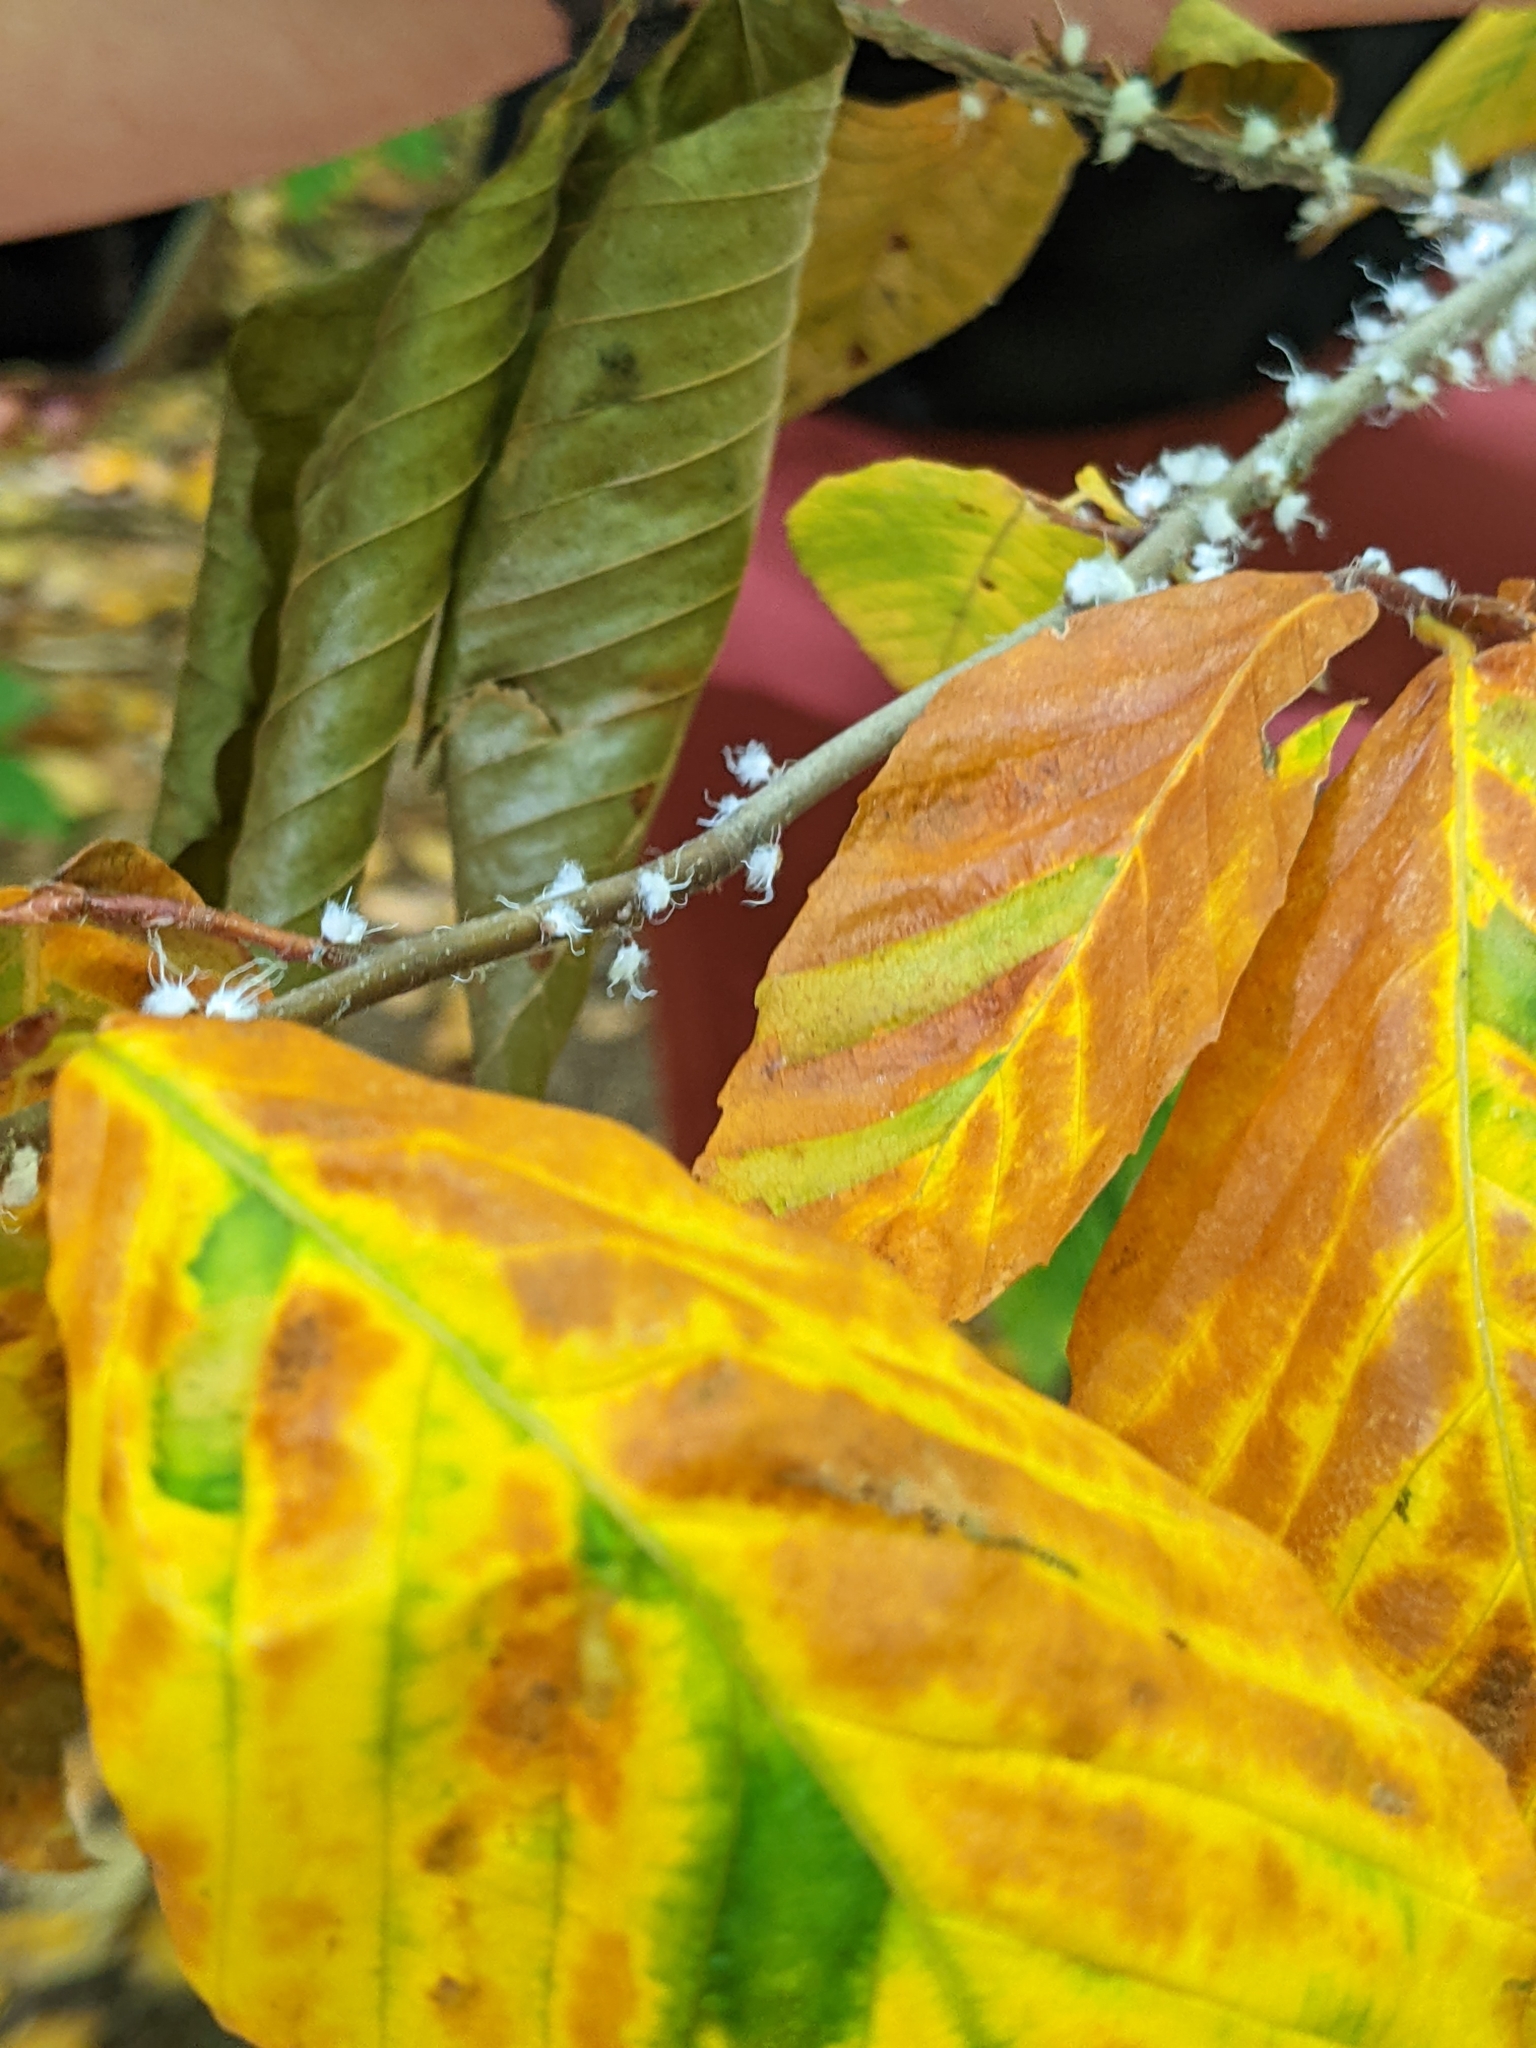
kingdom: Animalia
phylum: Arthropoda
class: Insecta
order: Hemiptera
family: Aphididae
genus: Grylloprociphilus
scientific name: Grylloprociphilus imbricator
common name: Beech blight aphid
